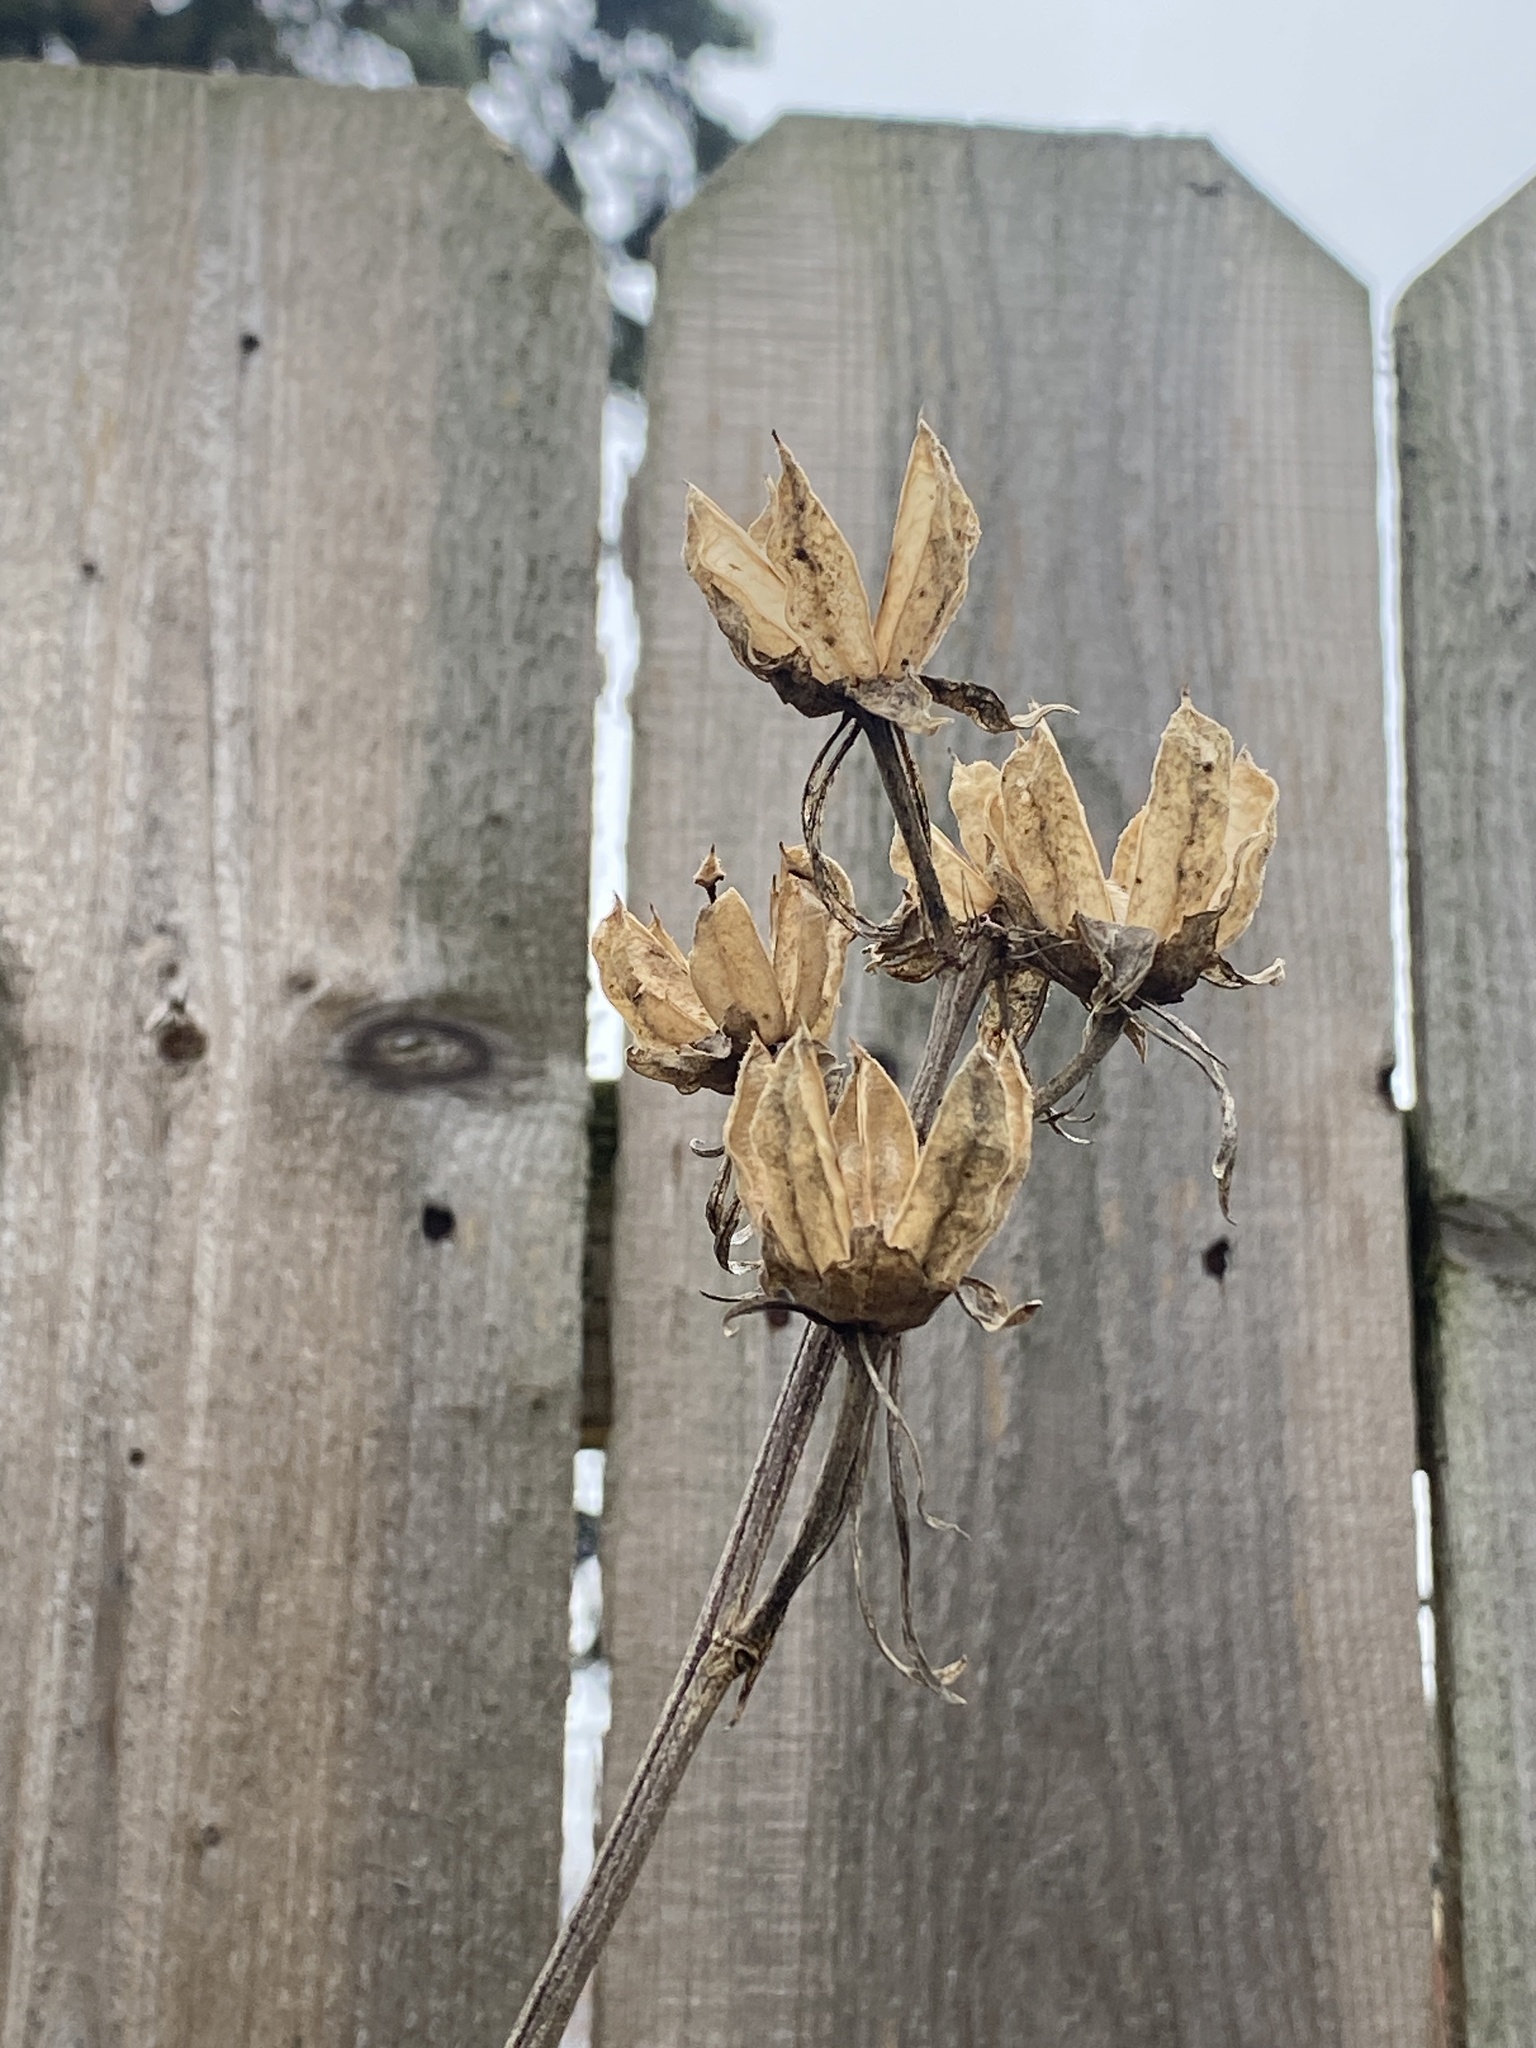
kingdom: Plantae
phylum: Tracheophyta
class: Magnoliopsida
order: Malvales
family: Malvaceae
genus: Hibiscus
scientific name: Hibiscus syriacus
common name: Syrian ketmia
